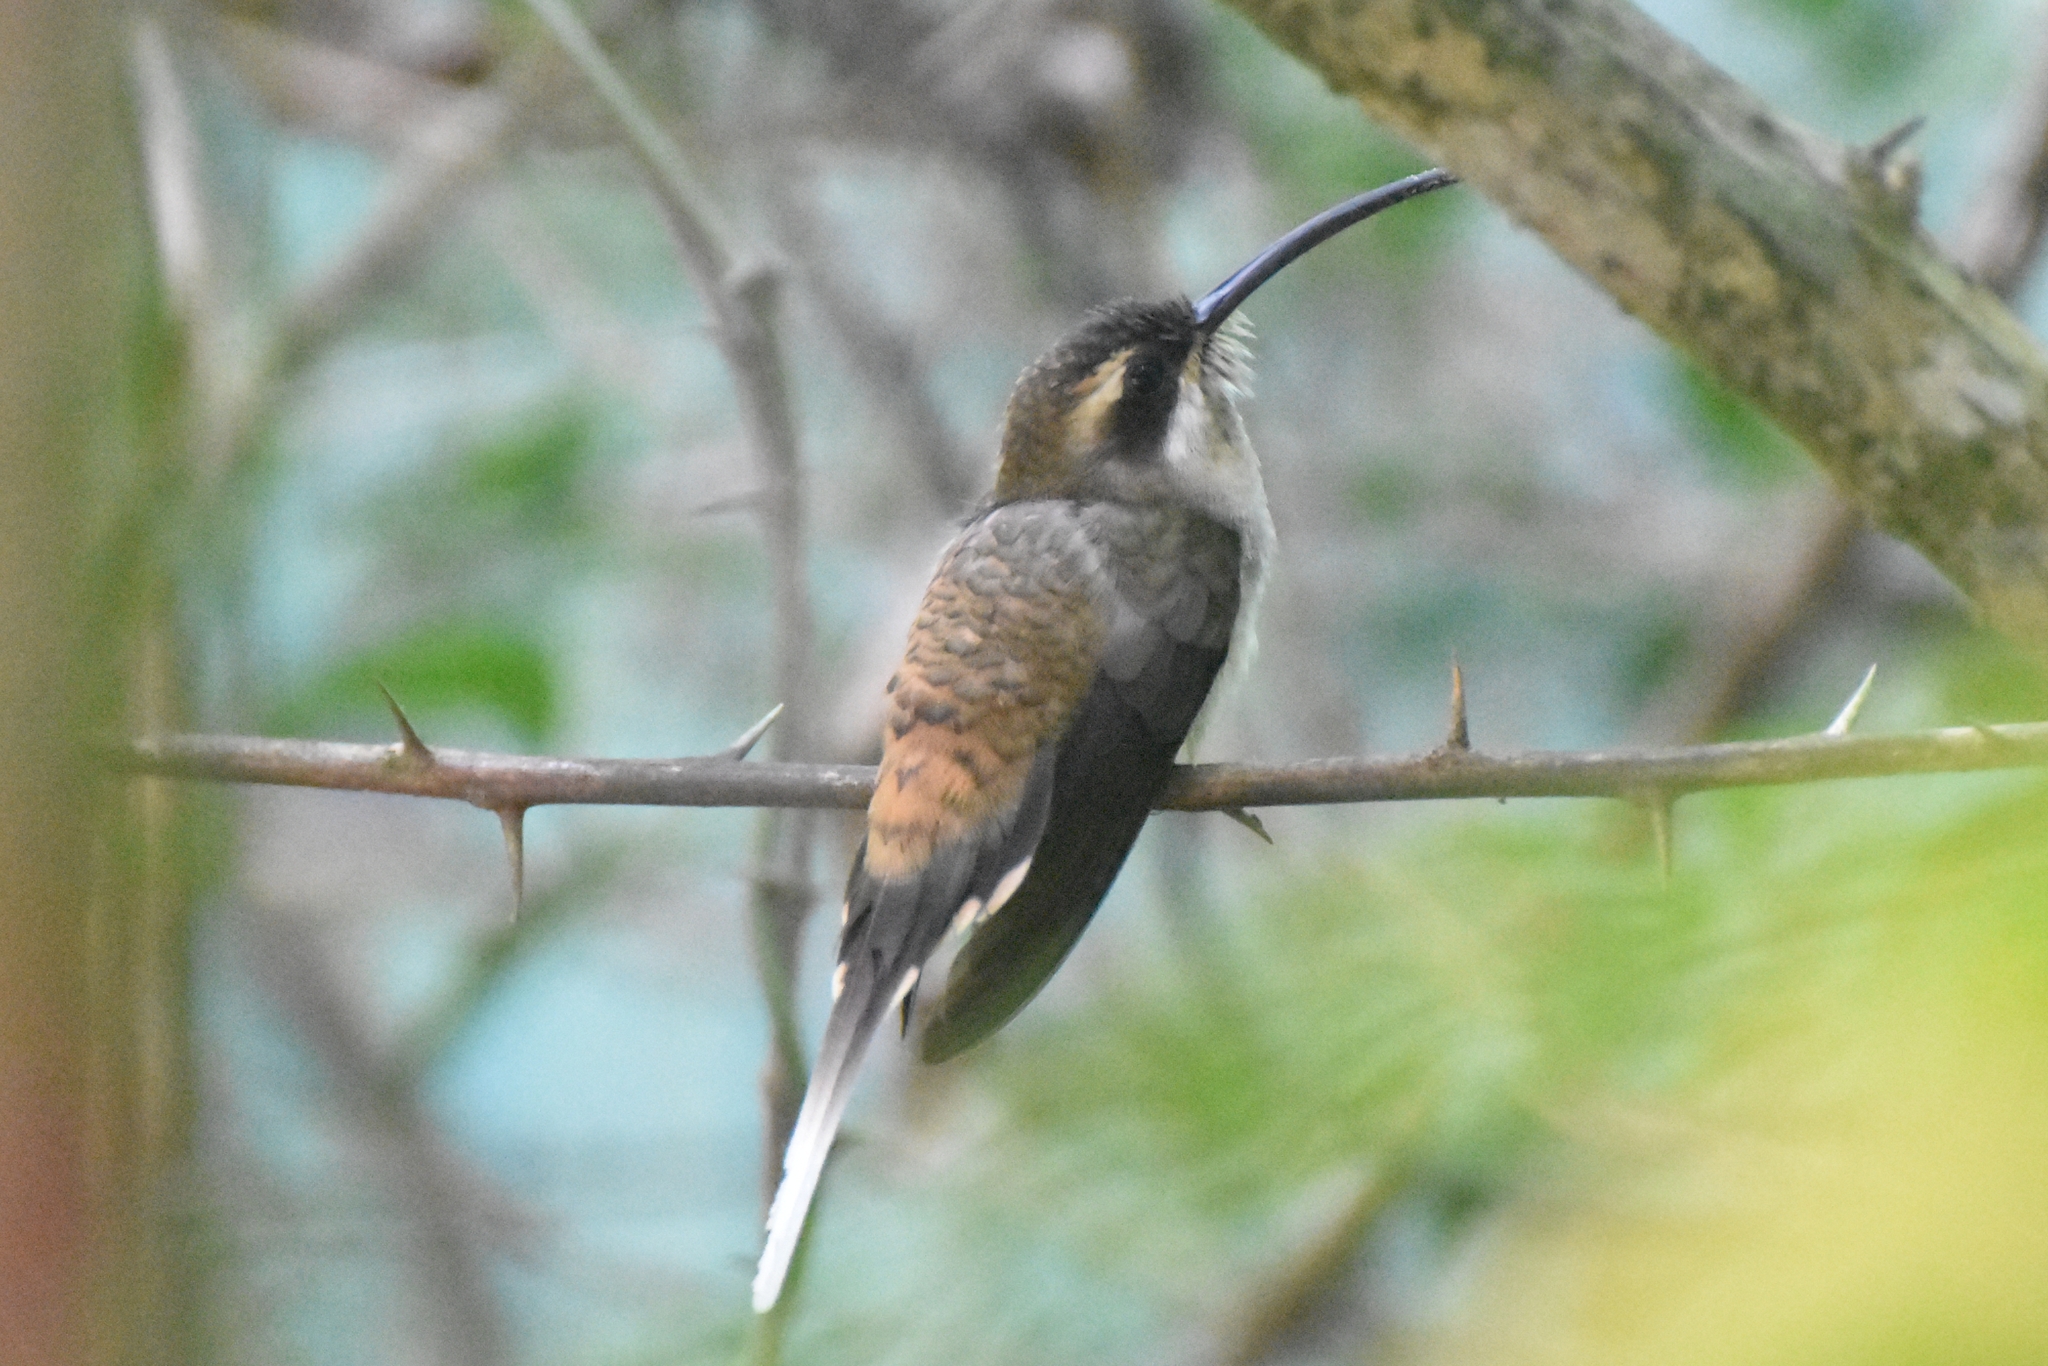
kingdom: Animalia
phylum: Chordata
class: Aves
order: Apodiformes
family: Trochilidae
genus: Phaethornis
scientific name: Phaethornis longirostris
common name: Long-billed hermit
